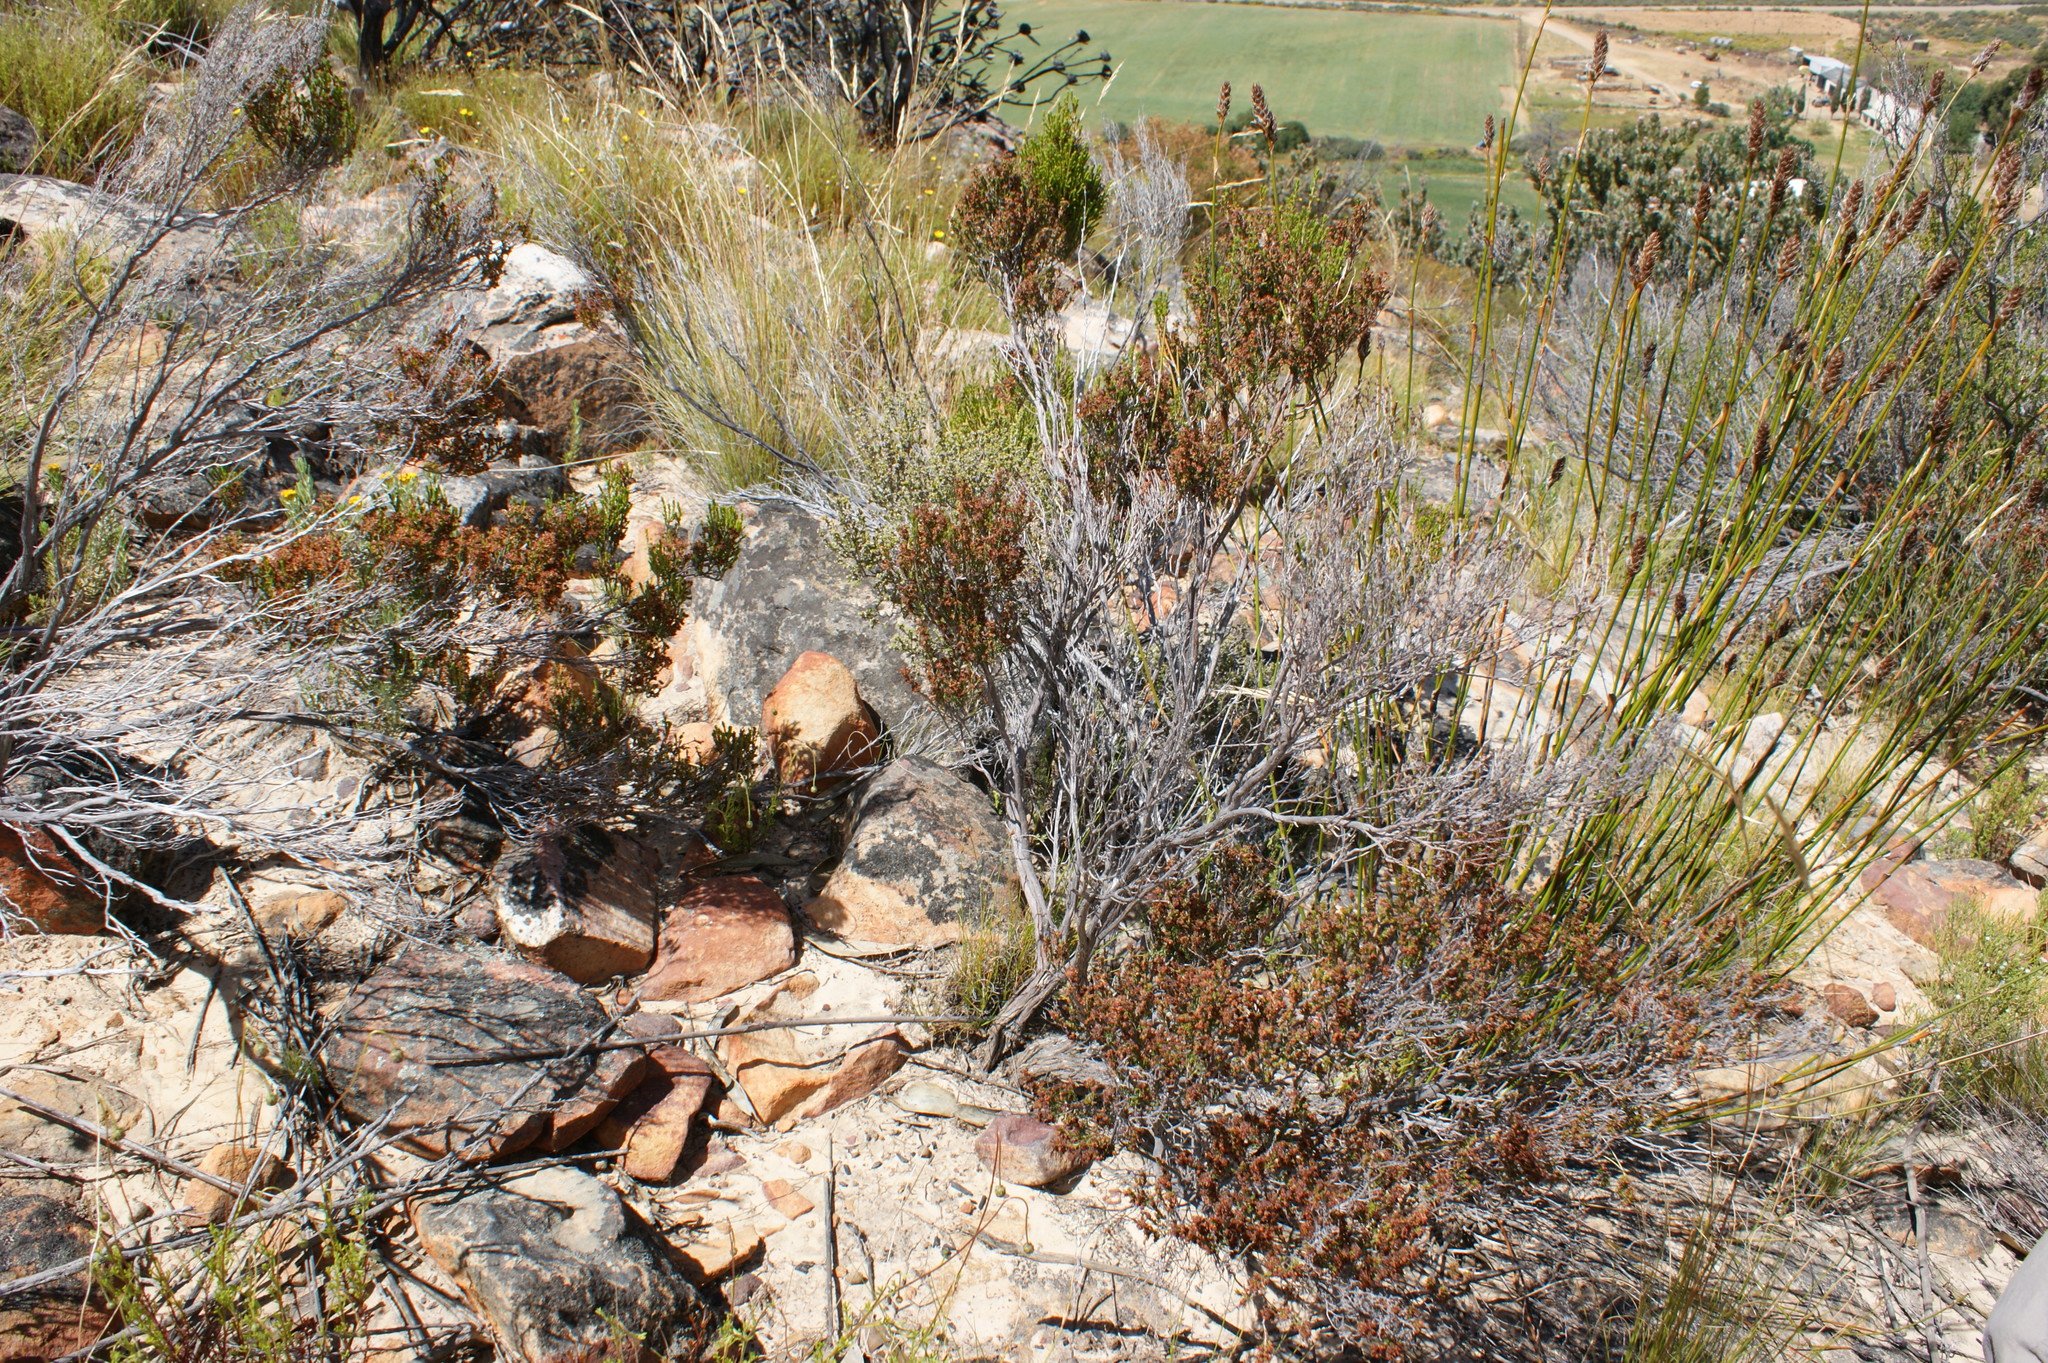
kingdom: Plantae
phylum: Tracheophyta
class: Magnoliopsida
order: Ericales
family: Ericaceae
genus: Erica
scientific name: Erica arcuata
